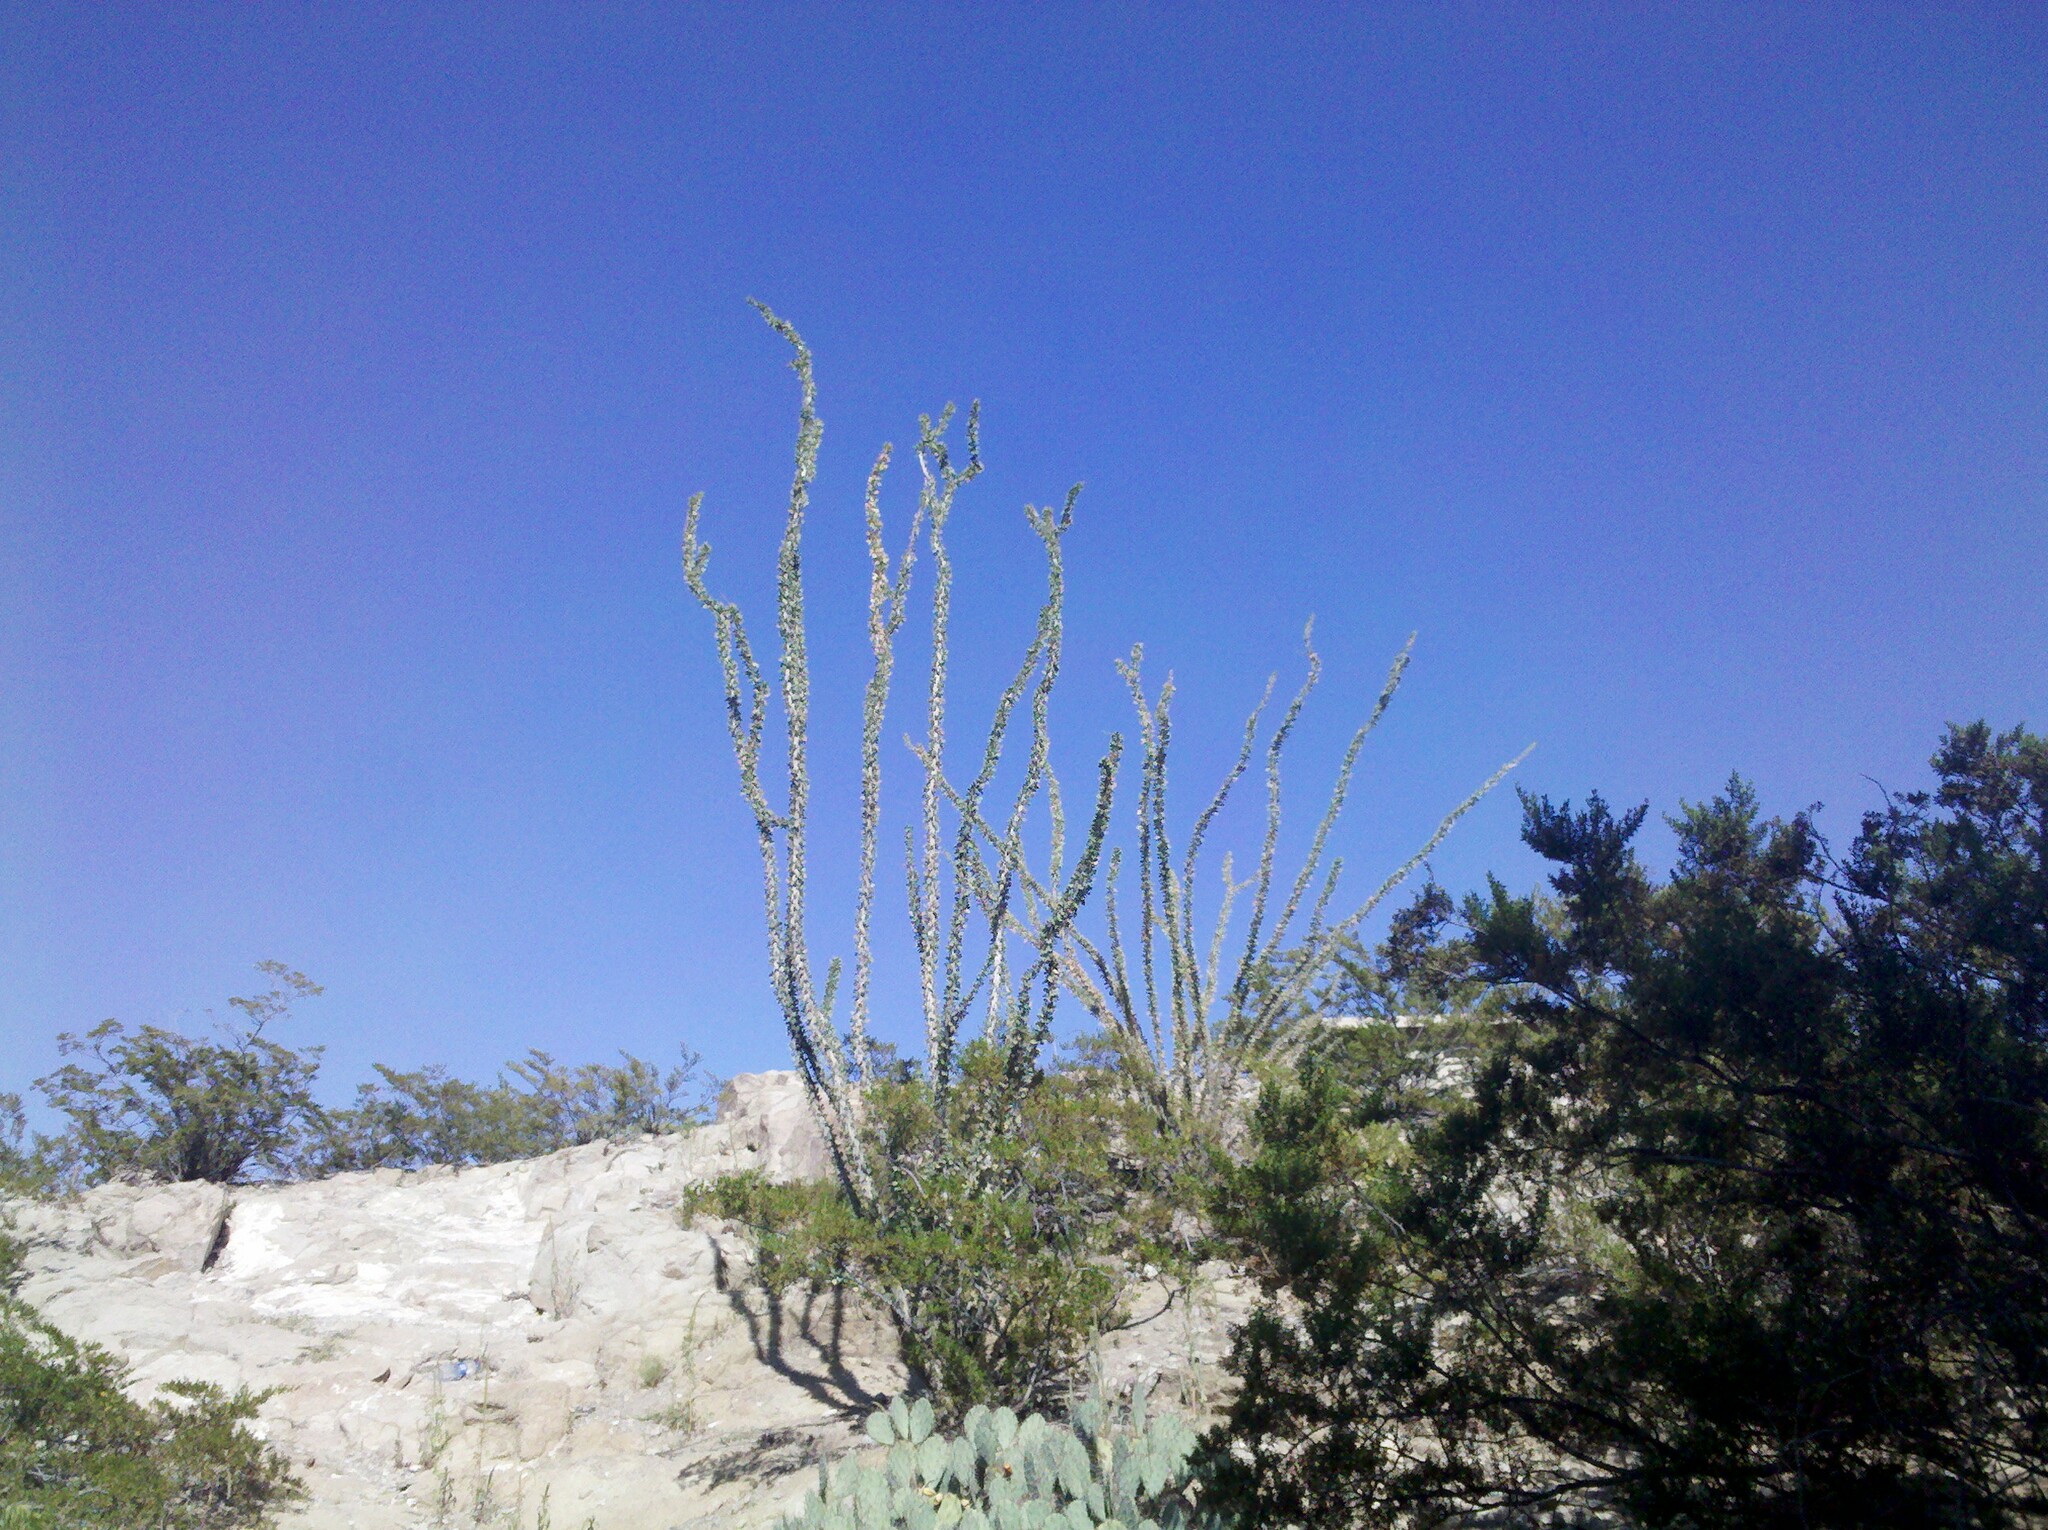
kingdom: Plantae
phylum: Tracheophyta
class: Magnoliopsida
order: Ericales
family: Fouquieriaceae
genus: Fouquieria
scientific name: Fouquieria splendens
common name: Vine-cactus
